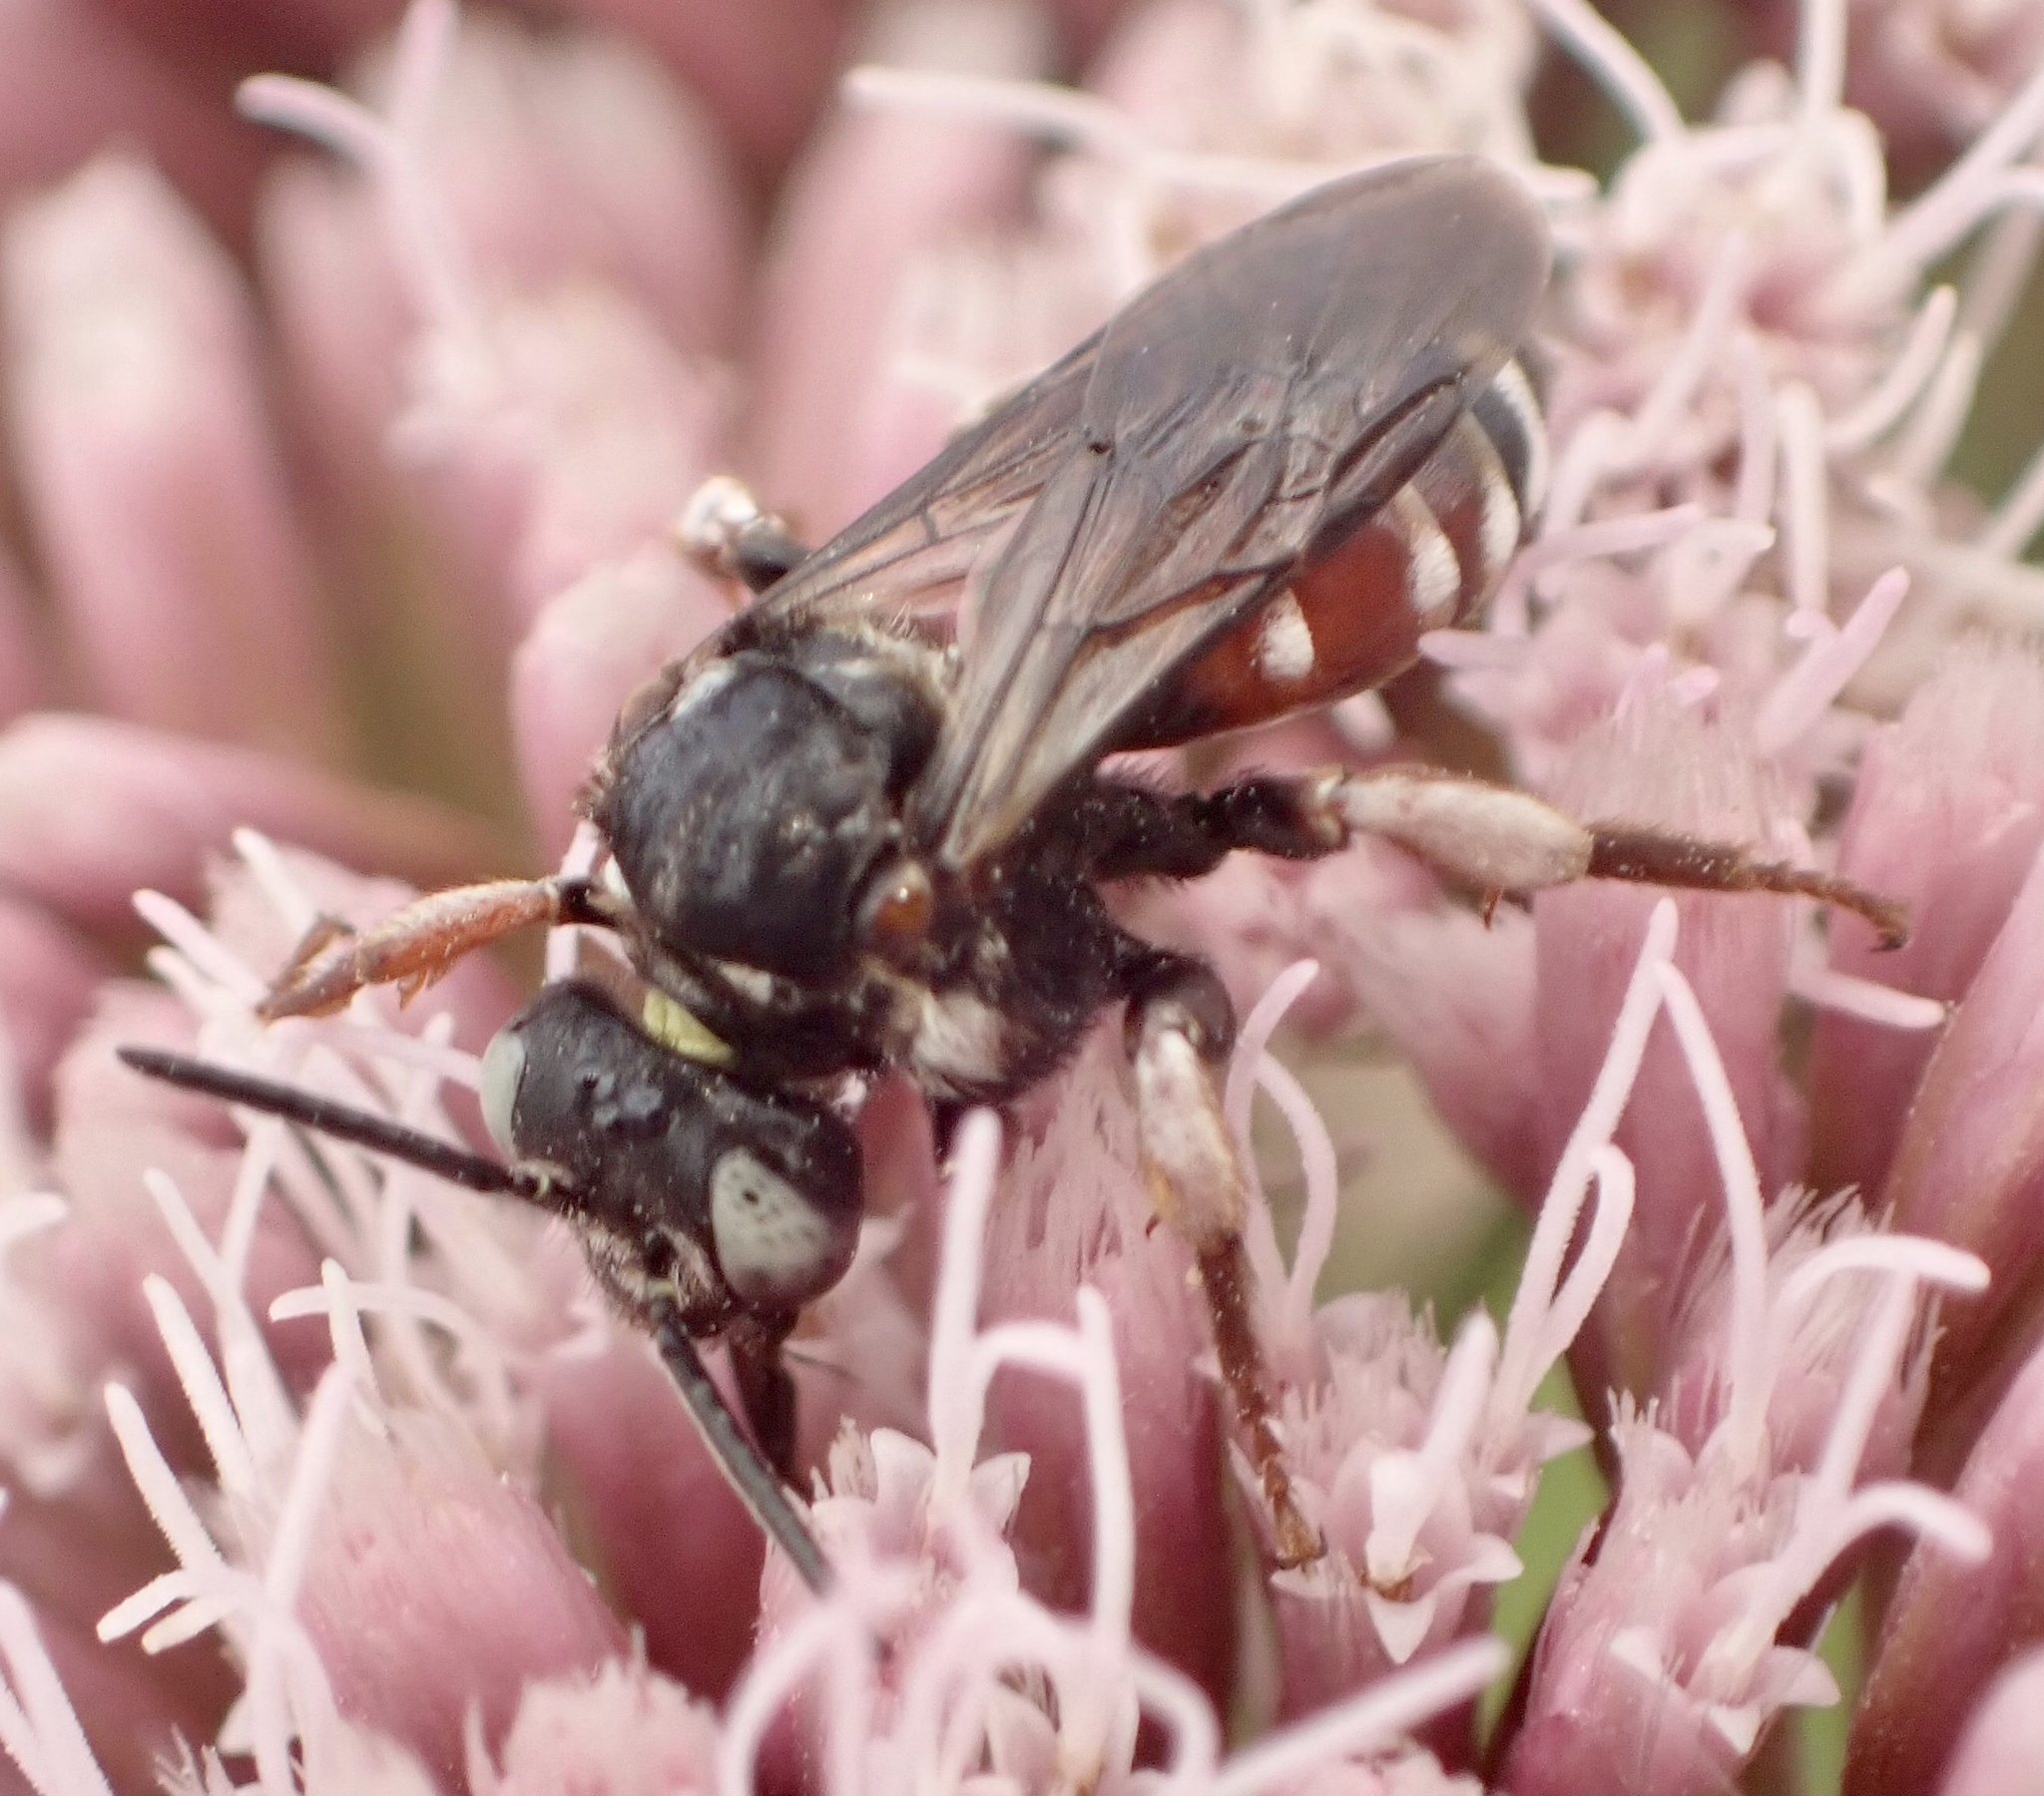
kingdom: Animalia
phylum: Arthropoda
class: Insecta
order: Hymenoptera
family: Apidae
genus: Epeoloides
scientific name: Epeoloides coecutiens
